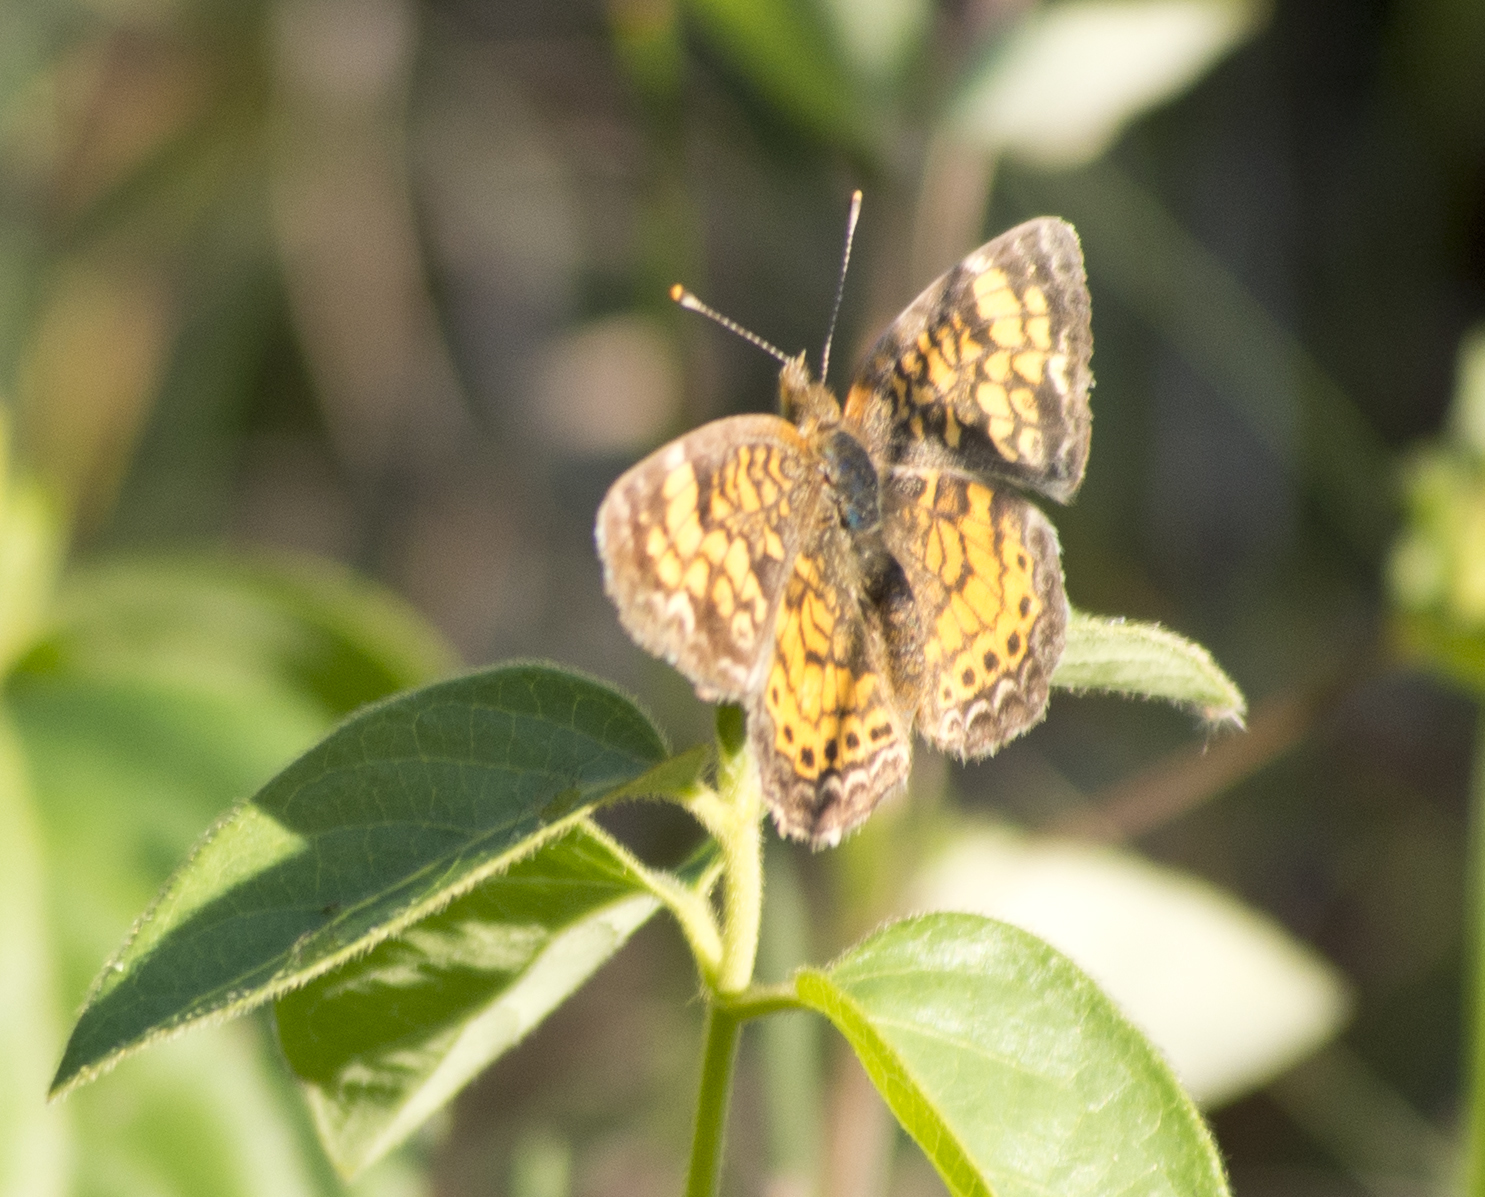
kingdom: Animalia
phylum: Arthropoda
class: Insecta
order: Lepidoptera
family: Nymphalidae
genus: Phyciodes
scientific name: Phyciodes tharos
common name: Pearl crescent
